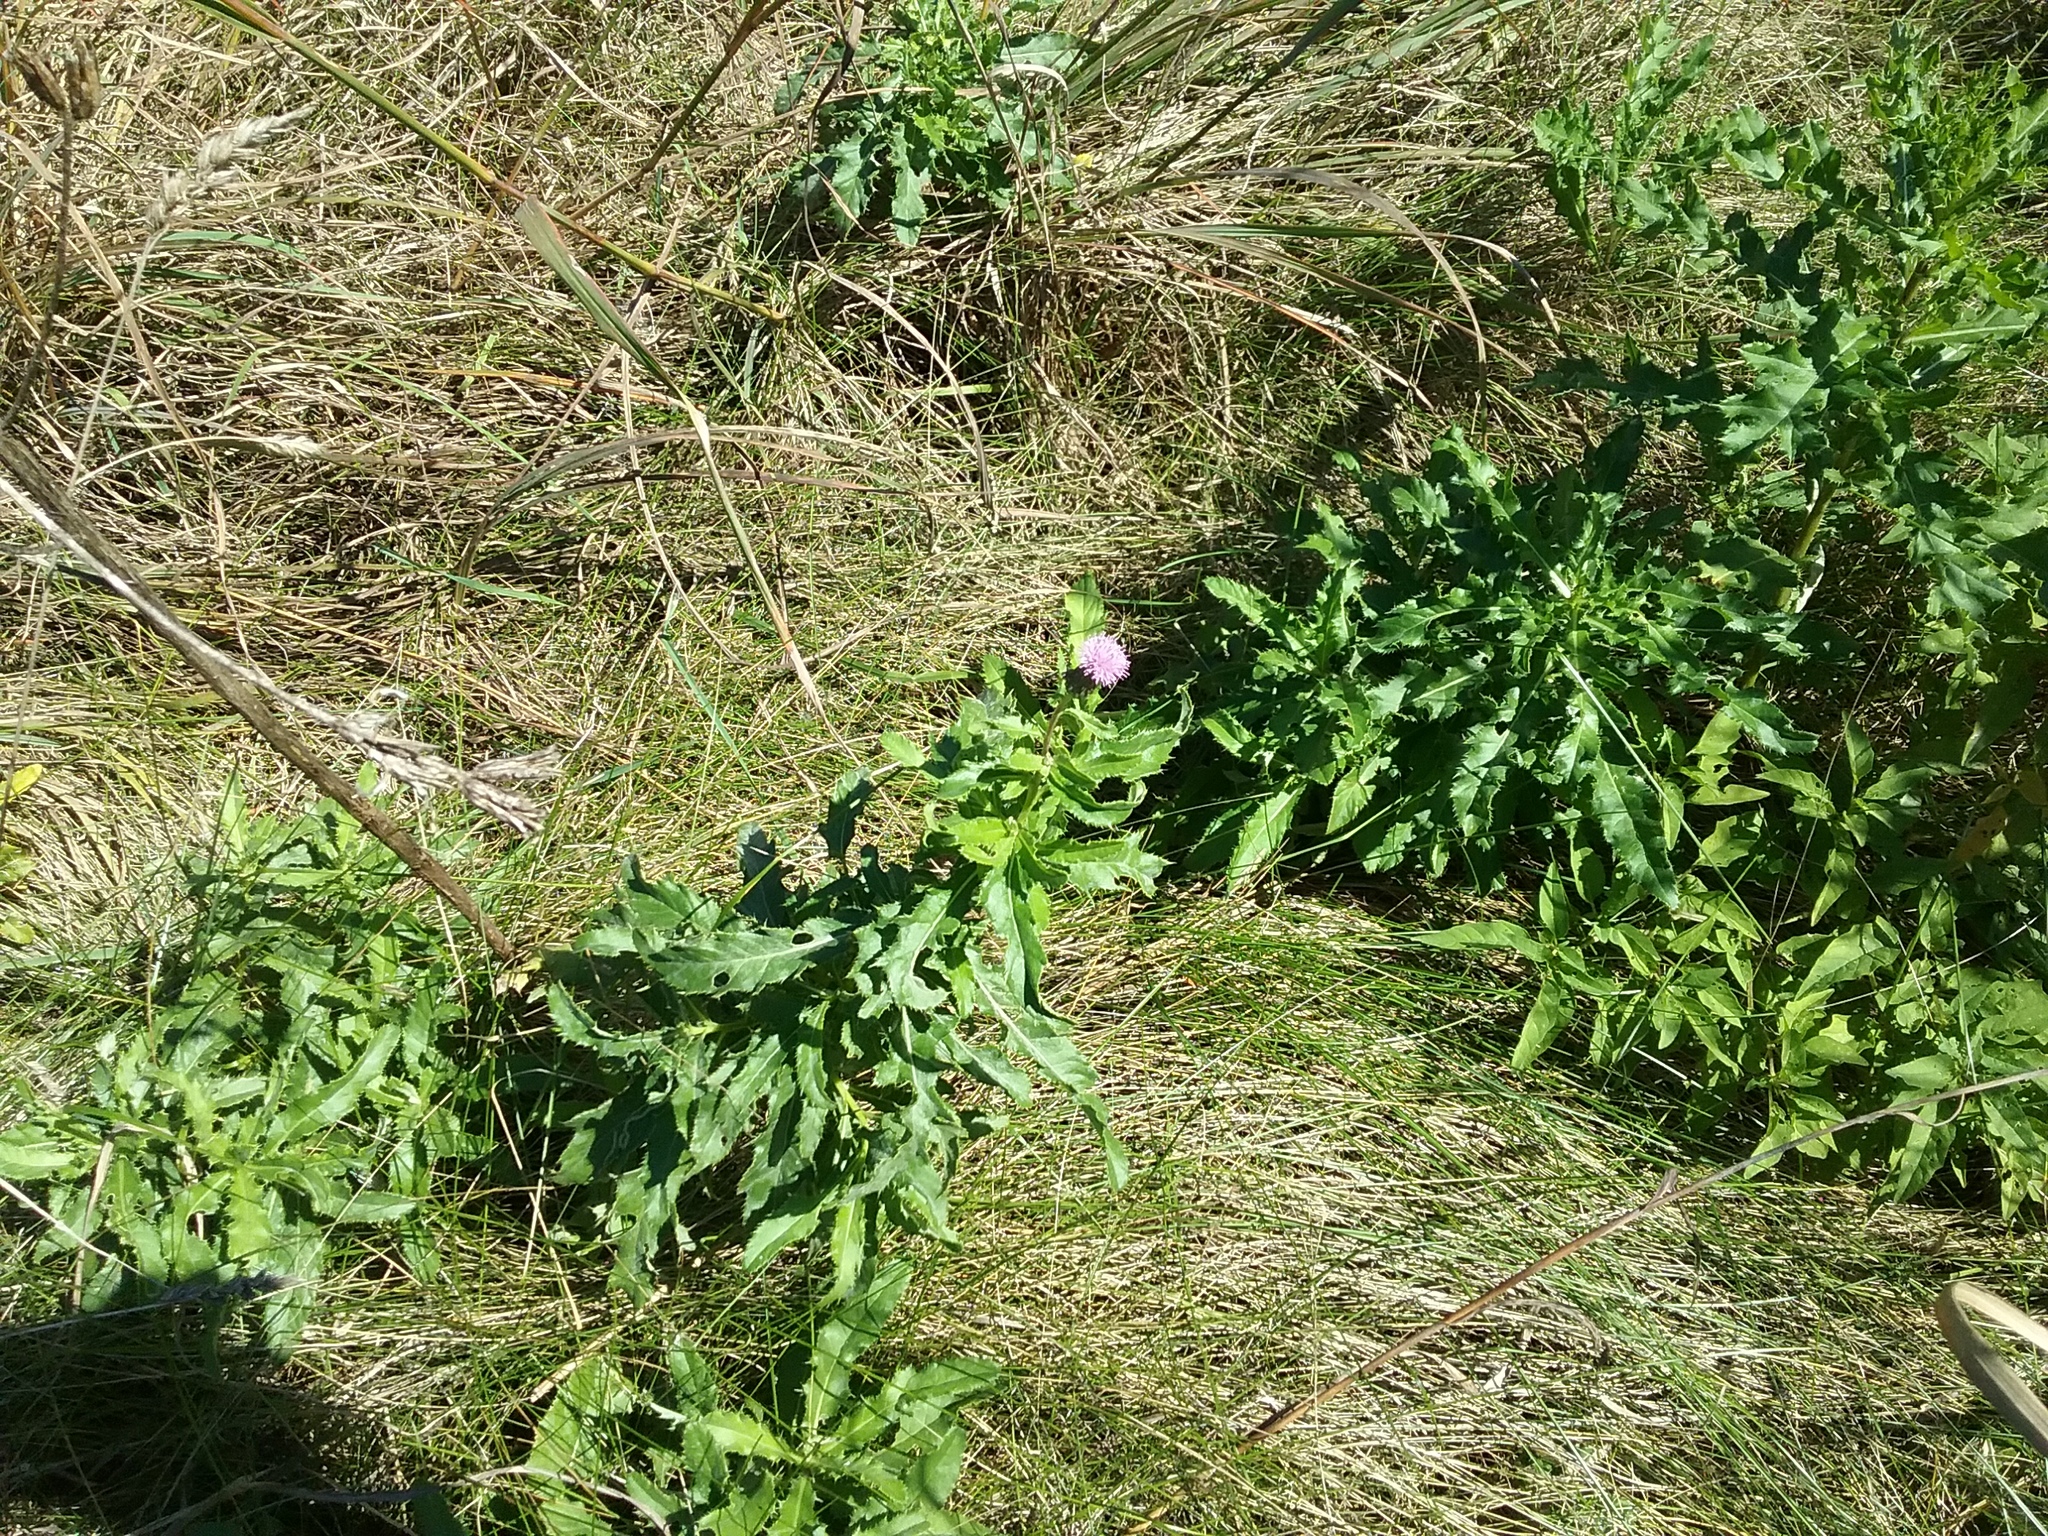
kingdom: Plantae
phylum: Tracheophyta
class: Magnoliopsida
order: Asterales
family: Asteraceae
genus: Cirsium
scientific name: Cirsium arvense
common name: Creeping thistle
